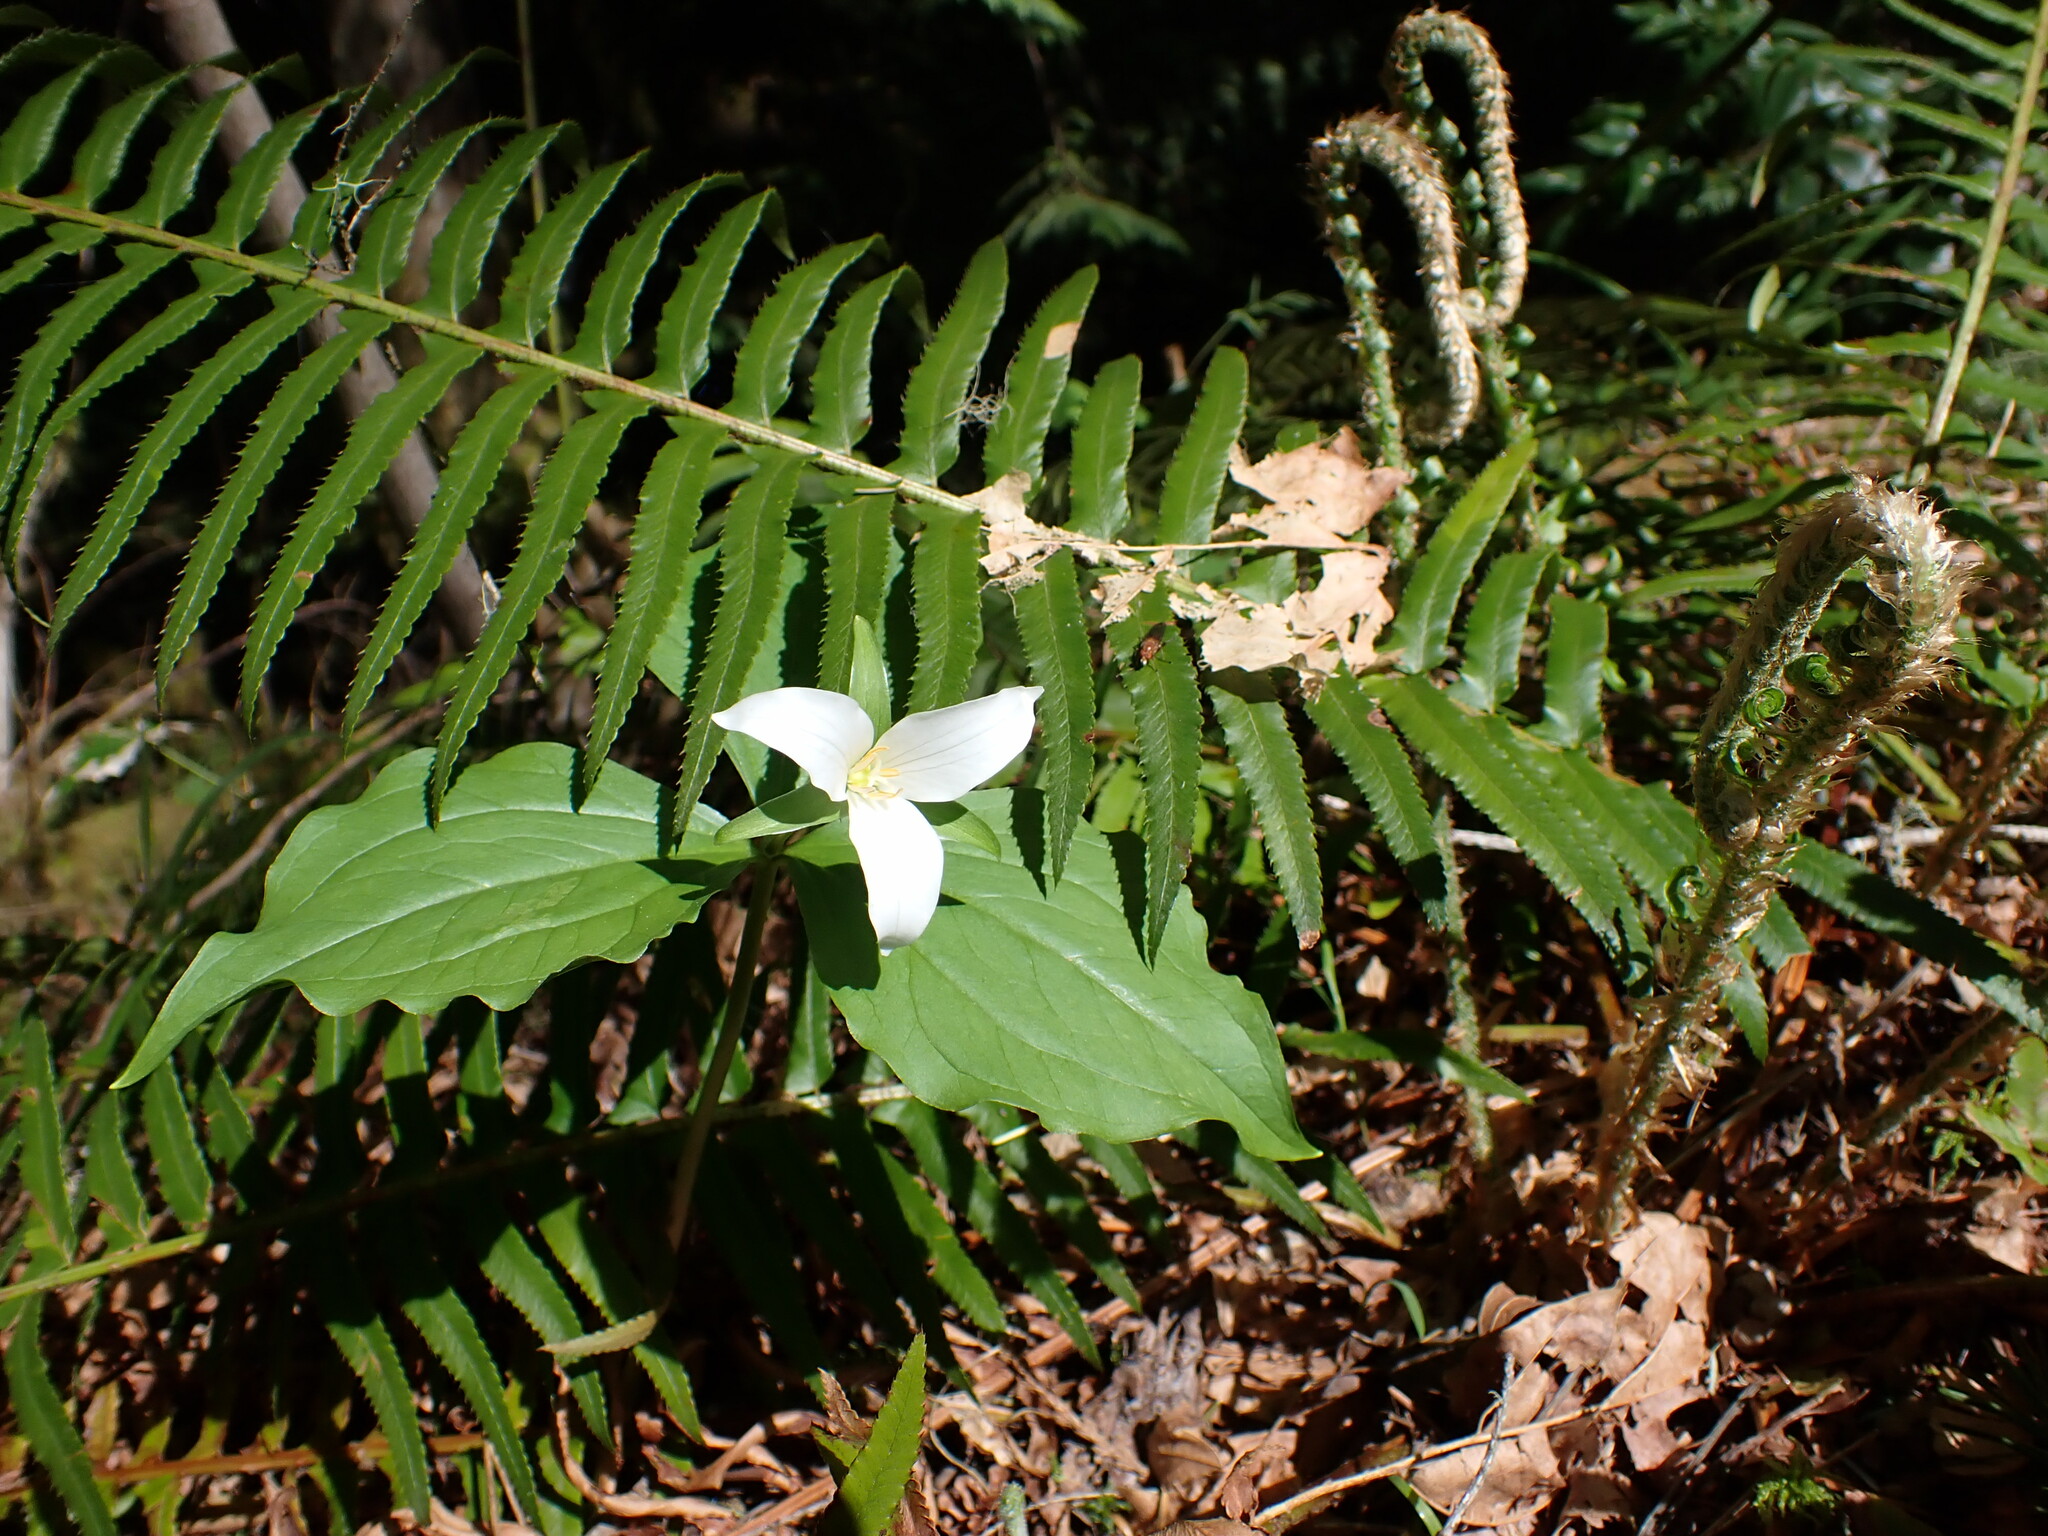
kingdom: Plantae
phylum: Tracheophyta
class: Liliopsida
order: Liliales
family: Melanthiaceae
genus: Trillium
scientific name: Trillium ovatum
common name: Pacific trillium
